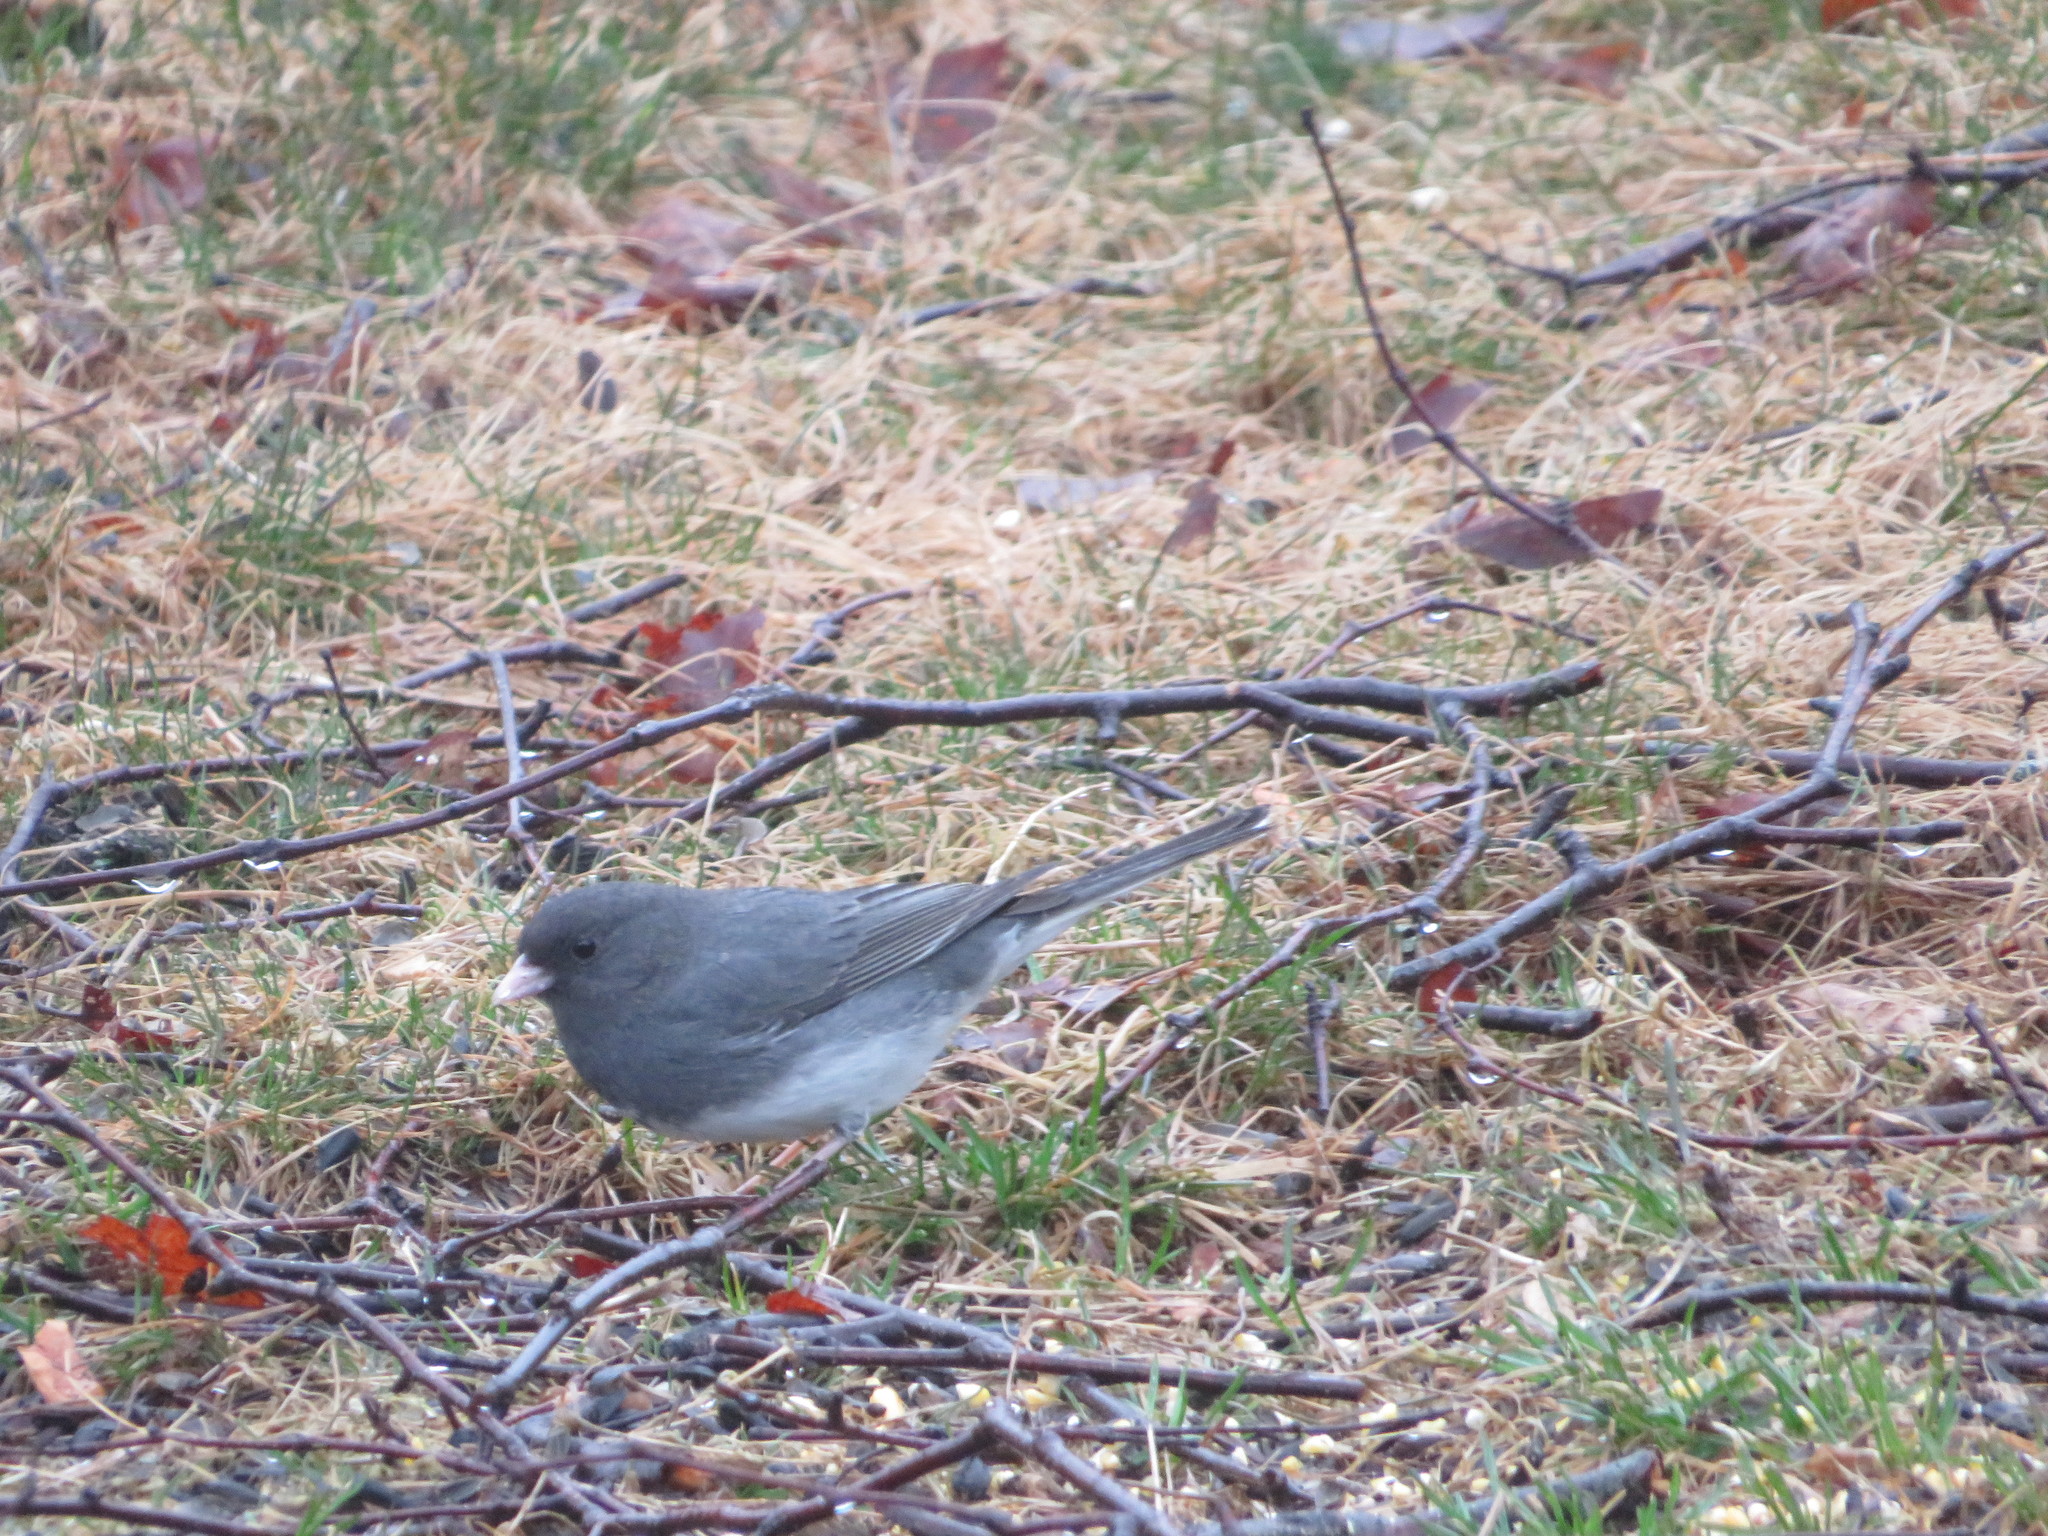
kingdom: Animalia
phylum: Chordata
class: Aves
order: Passeriformes
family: Passerellidae
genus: Junco
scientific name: Junco hyemalis
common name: Dark-eyed junco
